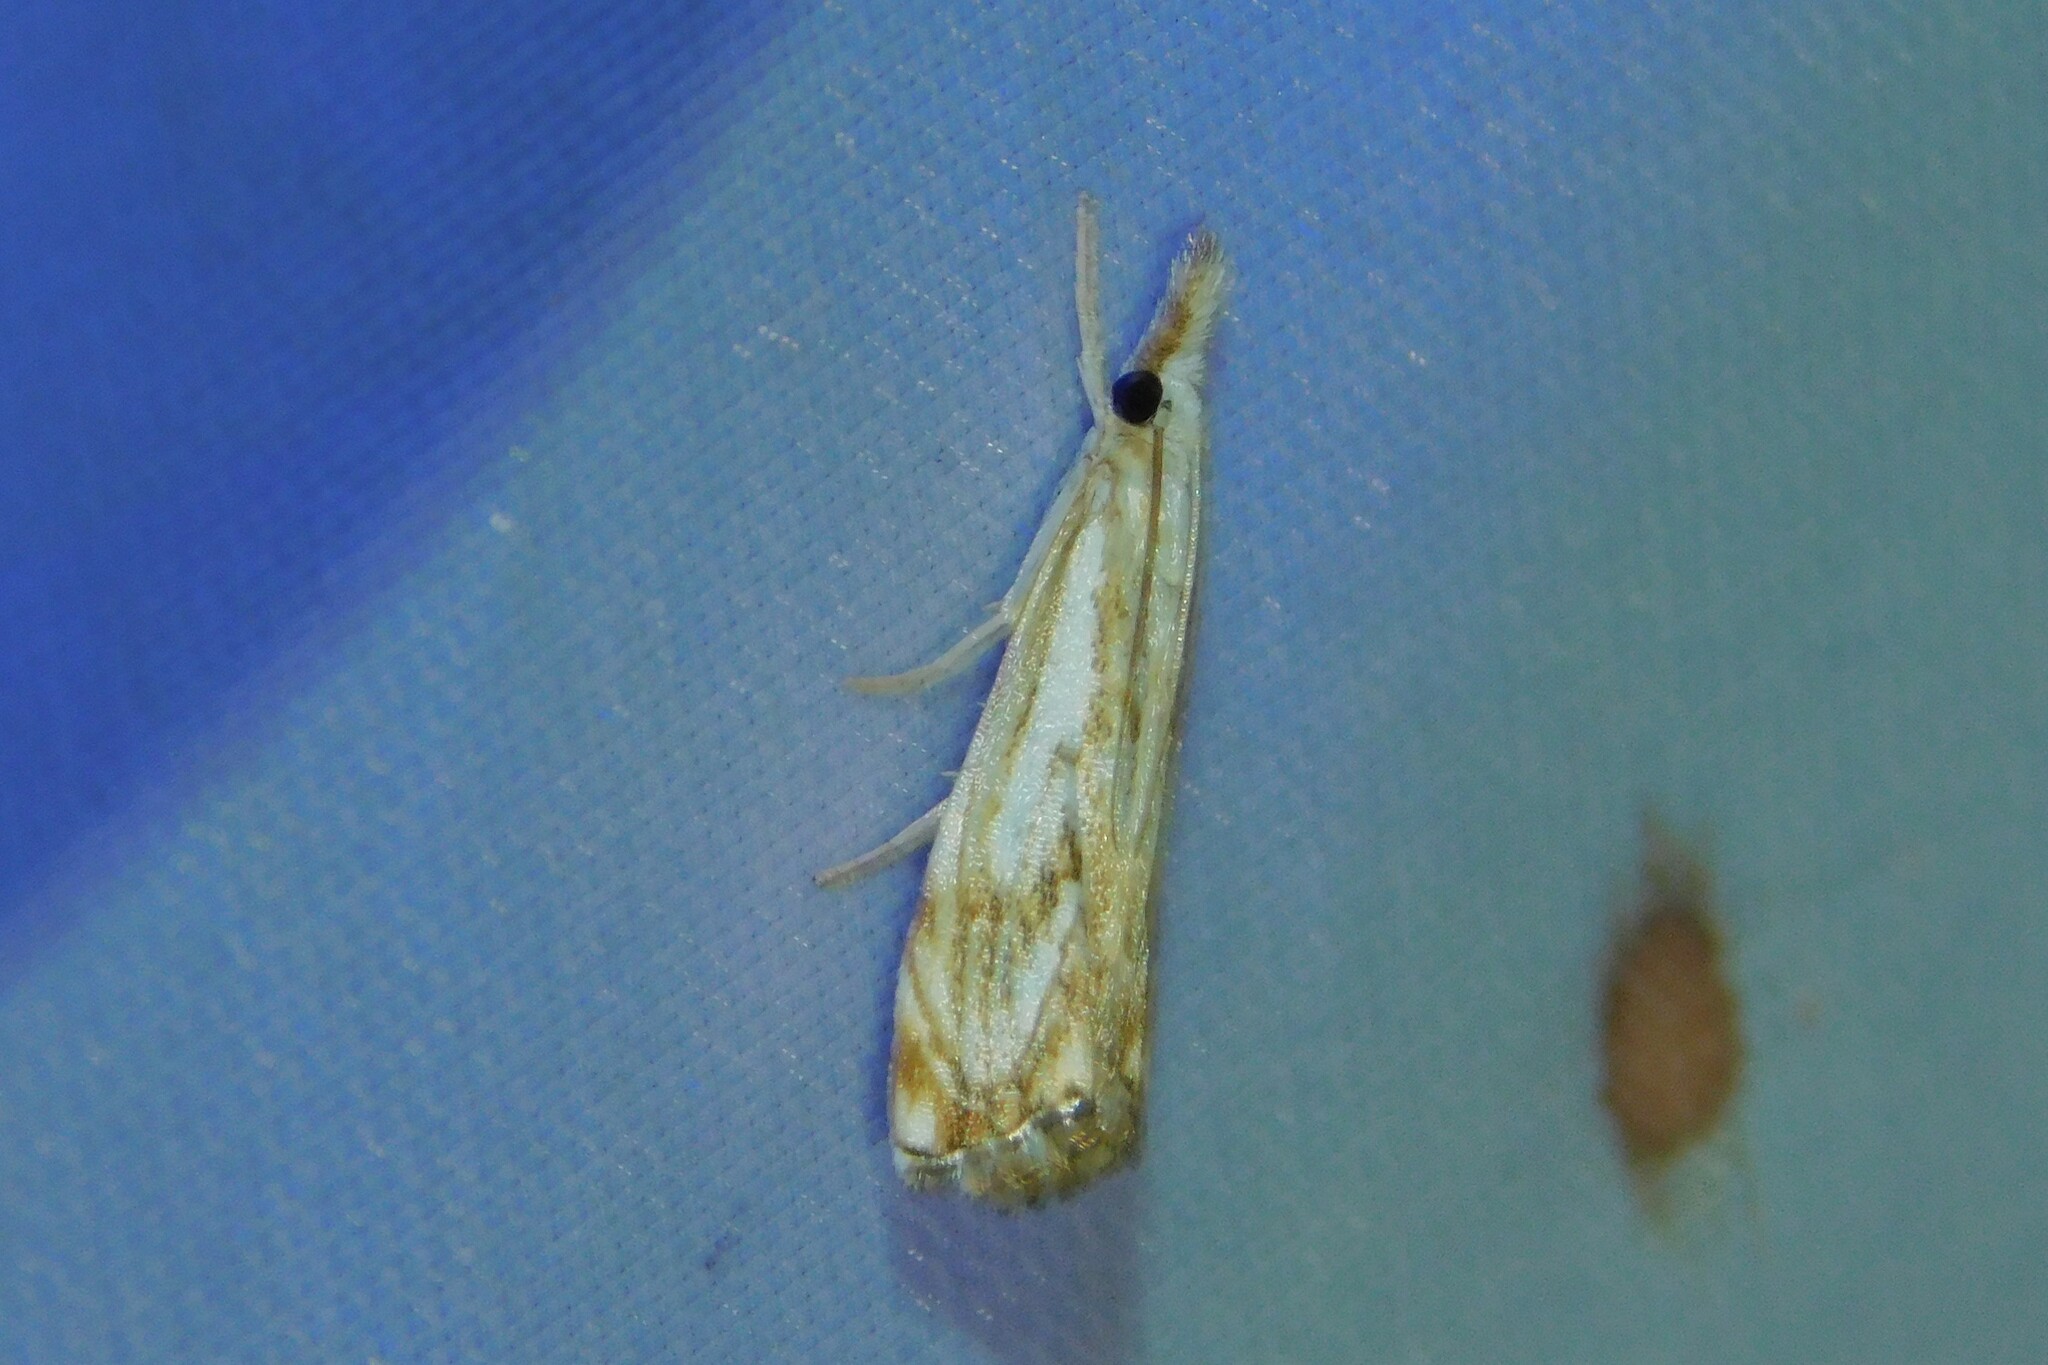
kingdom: Animalia
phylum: Arthropoda
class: Insecta
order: Lepidoptera
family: Crambidae
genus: Catoptria
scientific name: Catoptria falsella
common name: Chequered grass-veneer
